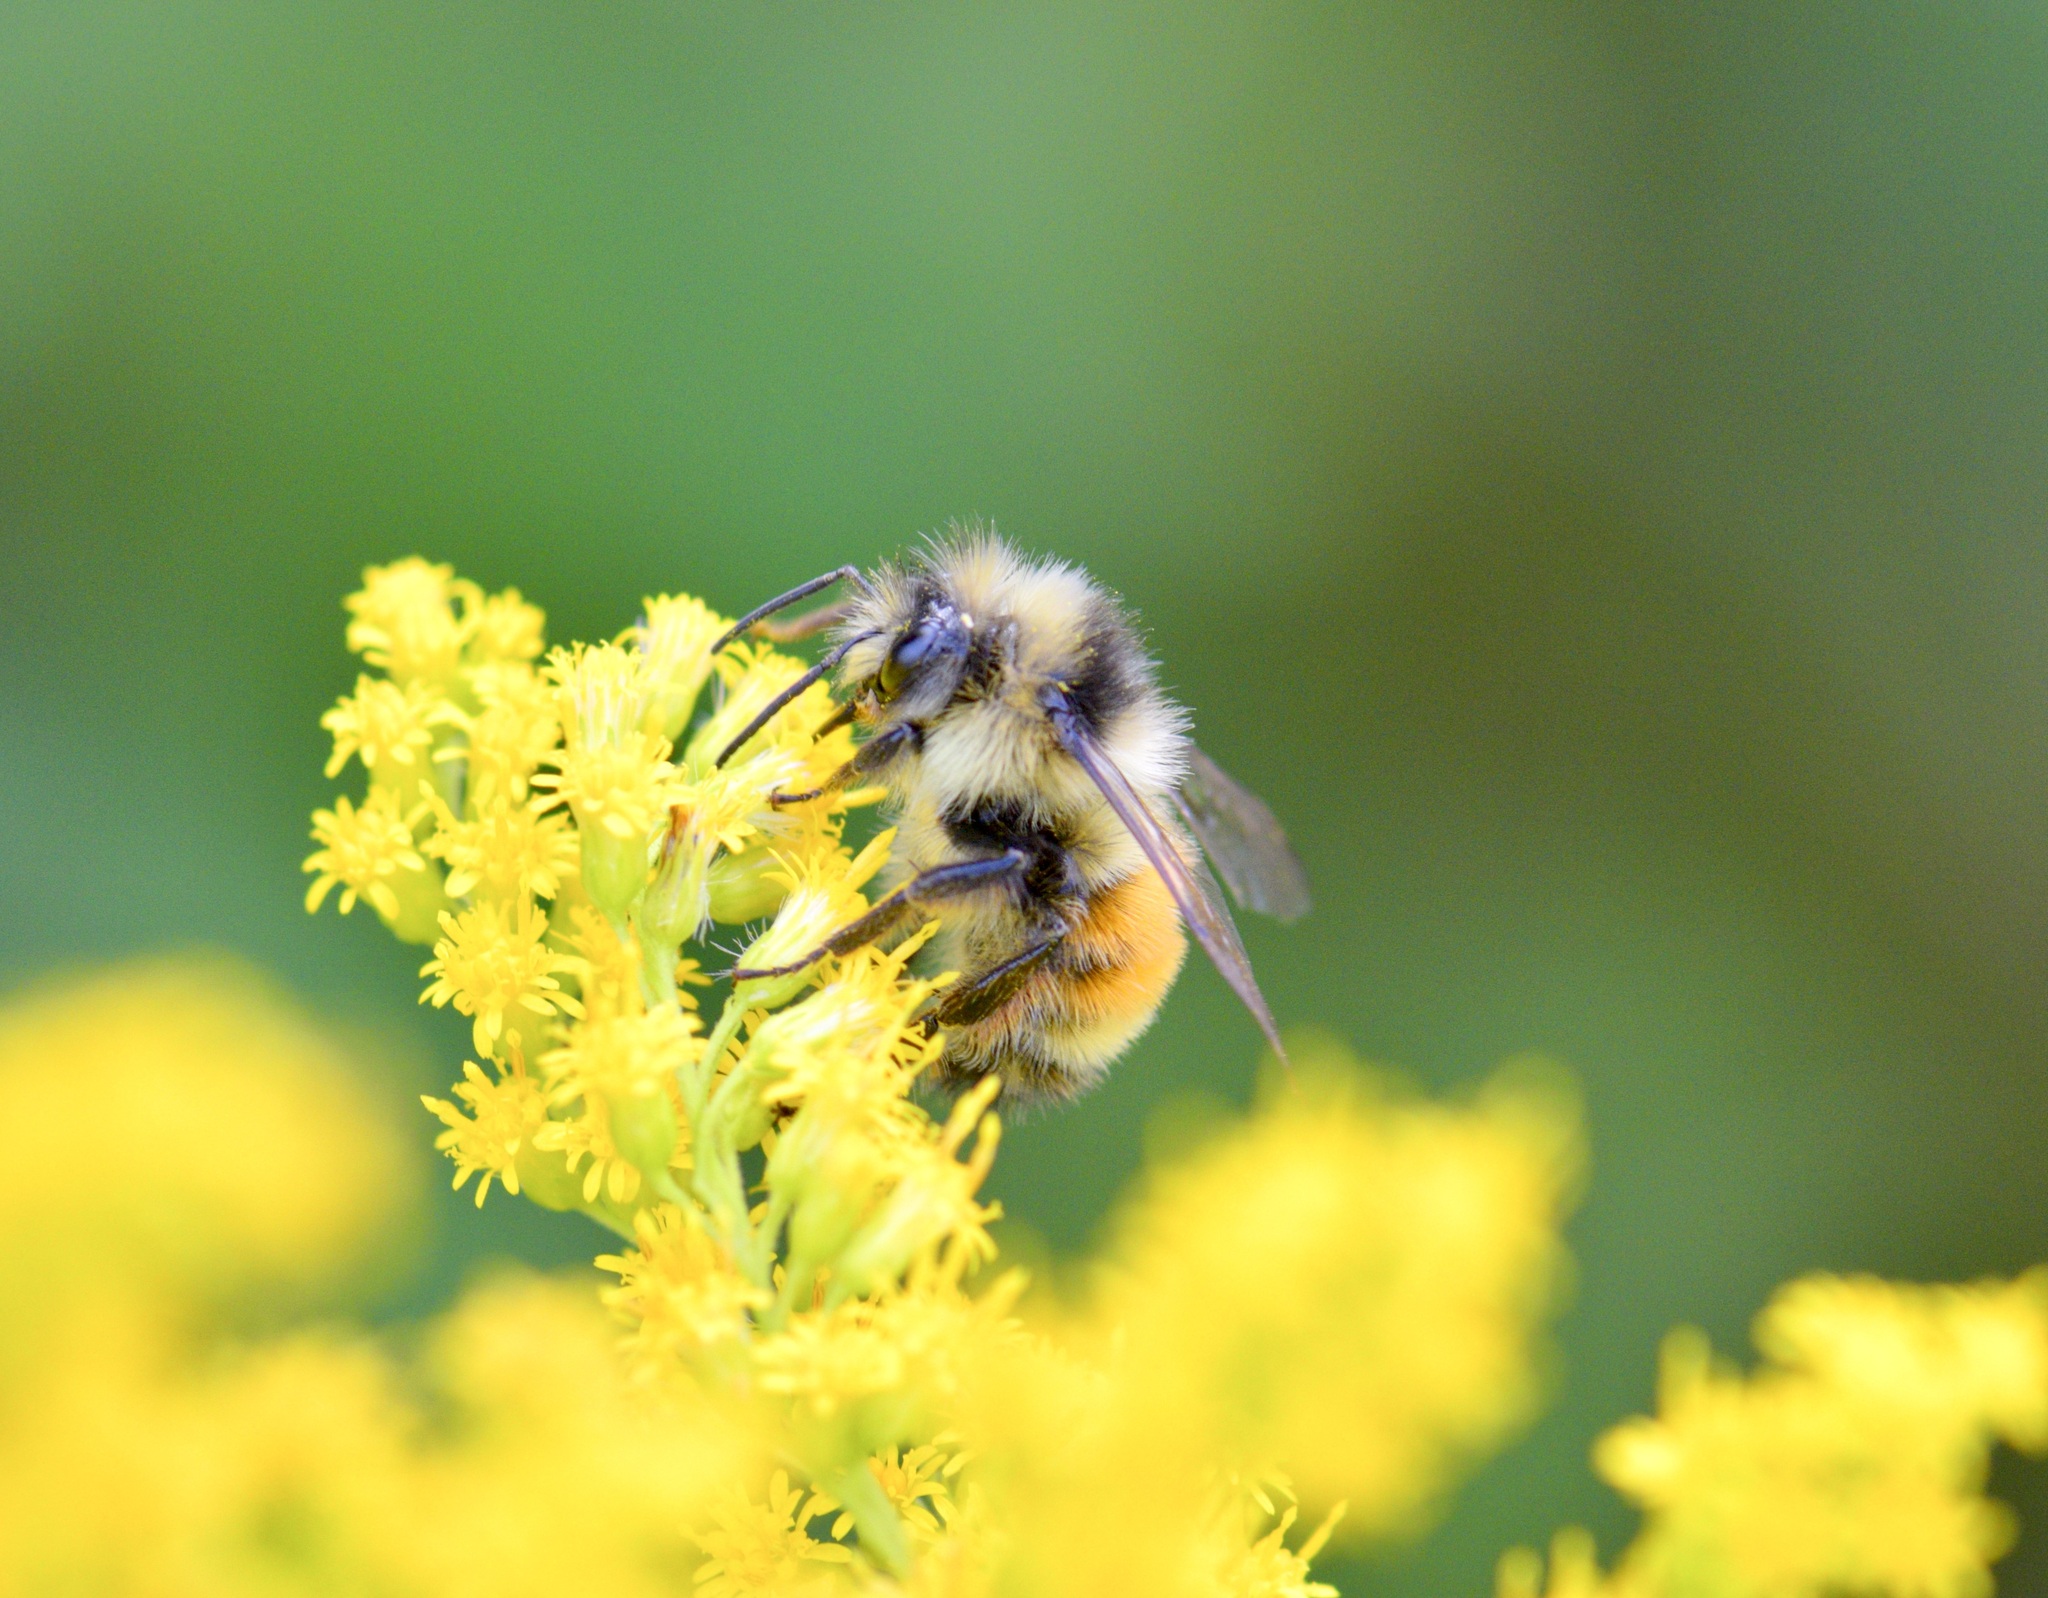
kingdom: Animalia
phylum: Arthropoda
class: Insecta
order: Hymenoptera
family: Apidae
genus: Bombus
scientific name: Bombus ternarius
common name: Tri-colored bumble bee
